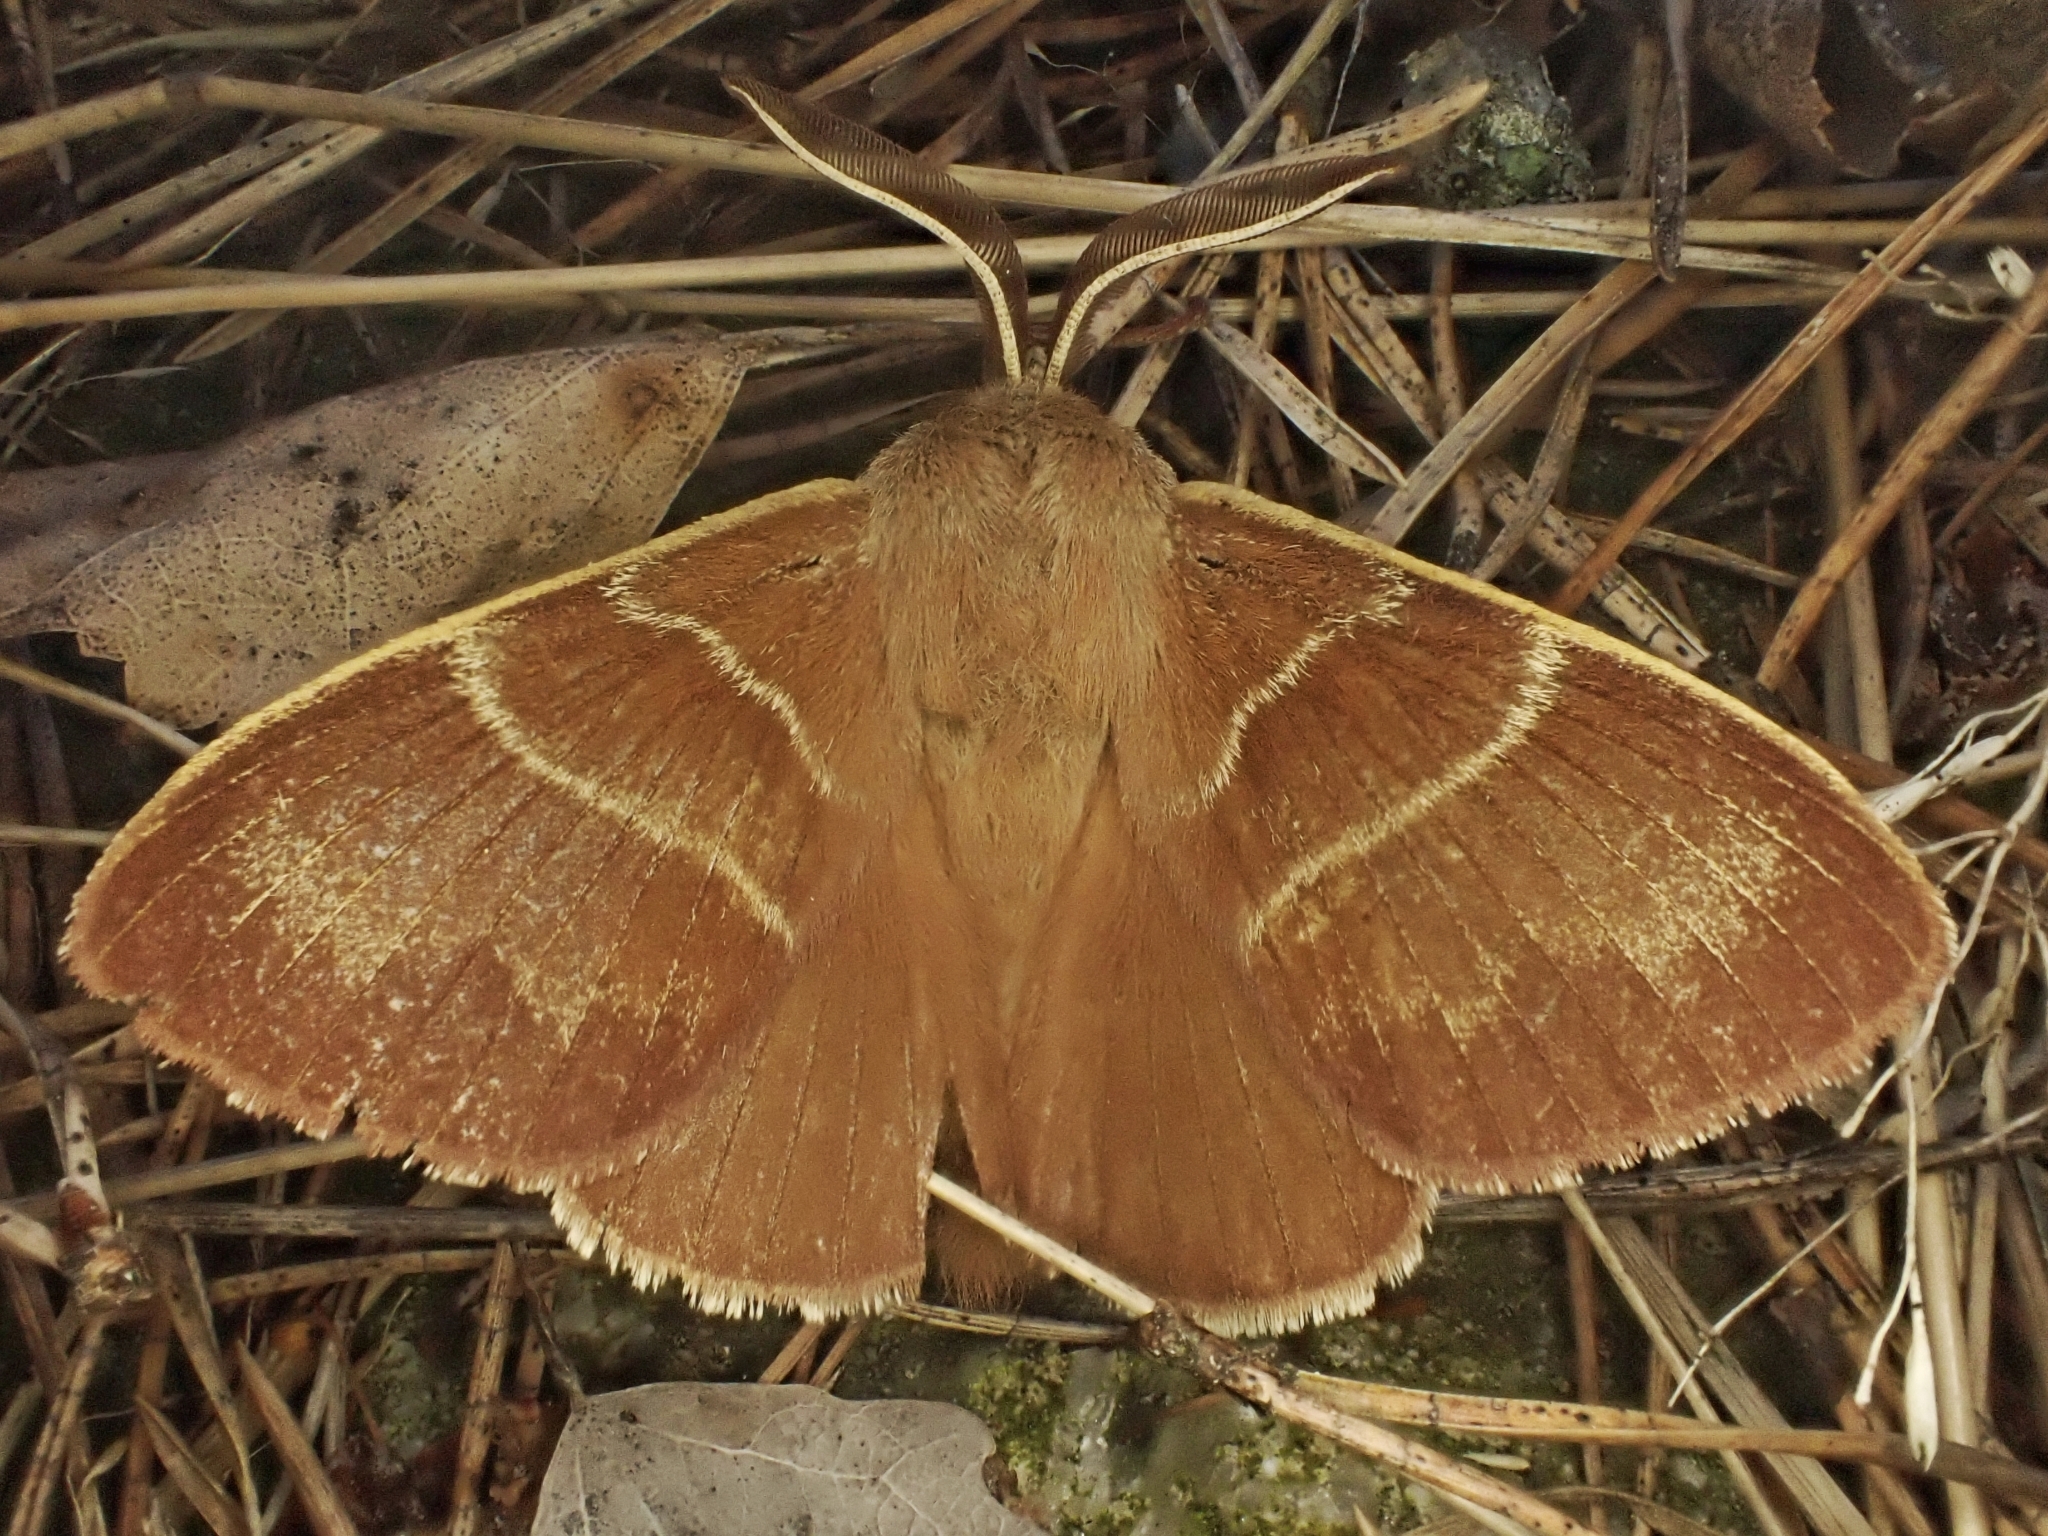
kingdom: Animalia
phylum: Arthropoda
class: Insecta
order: Lepidoptera
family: Lasiocampidae
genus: Macrothylacia
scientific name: Macrothylacia rubi
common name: Fox moth
